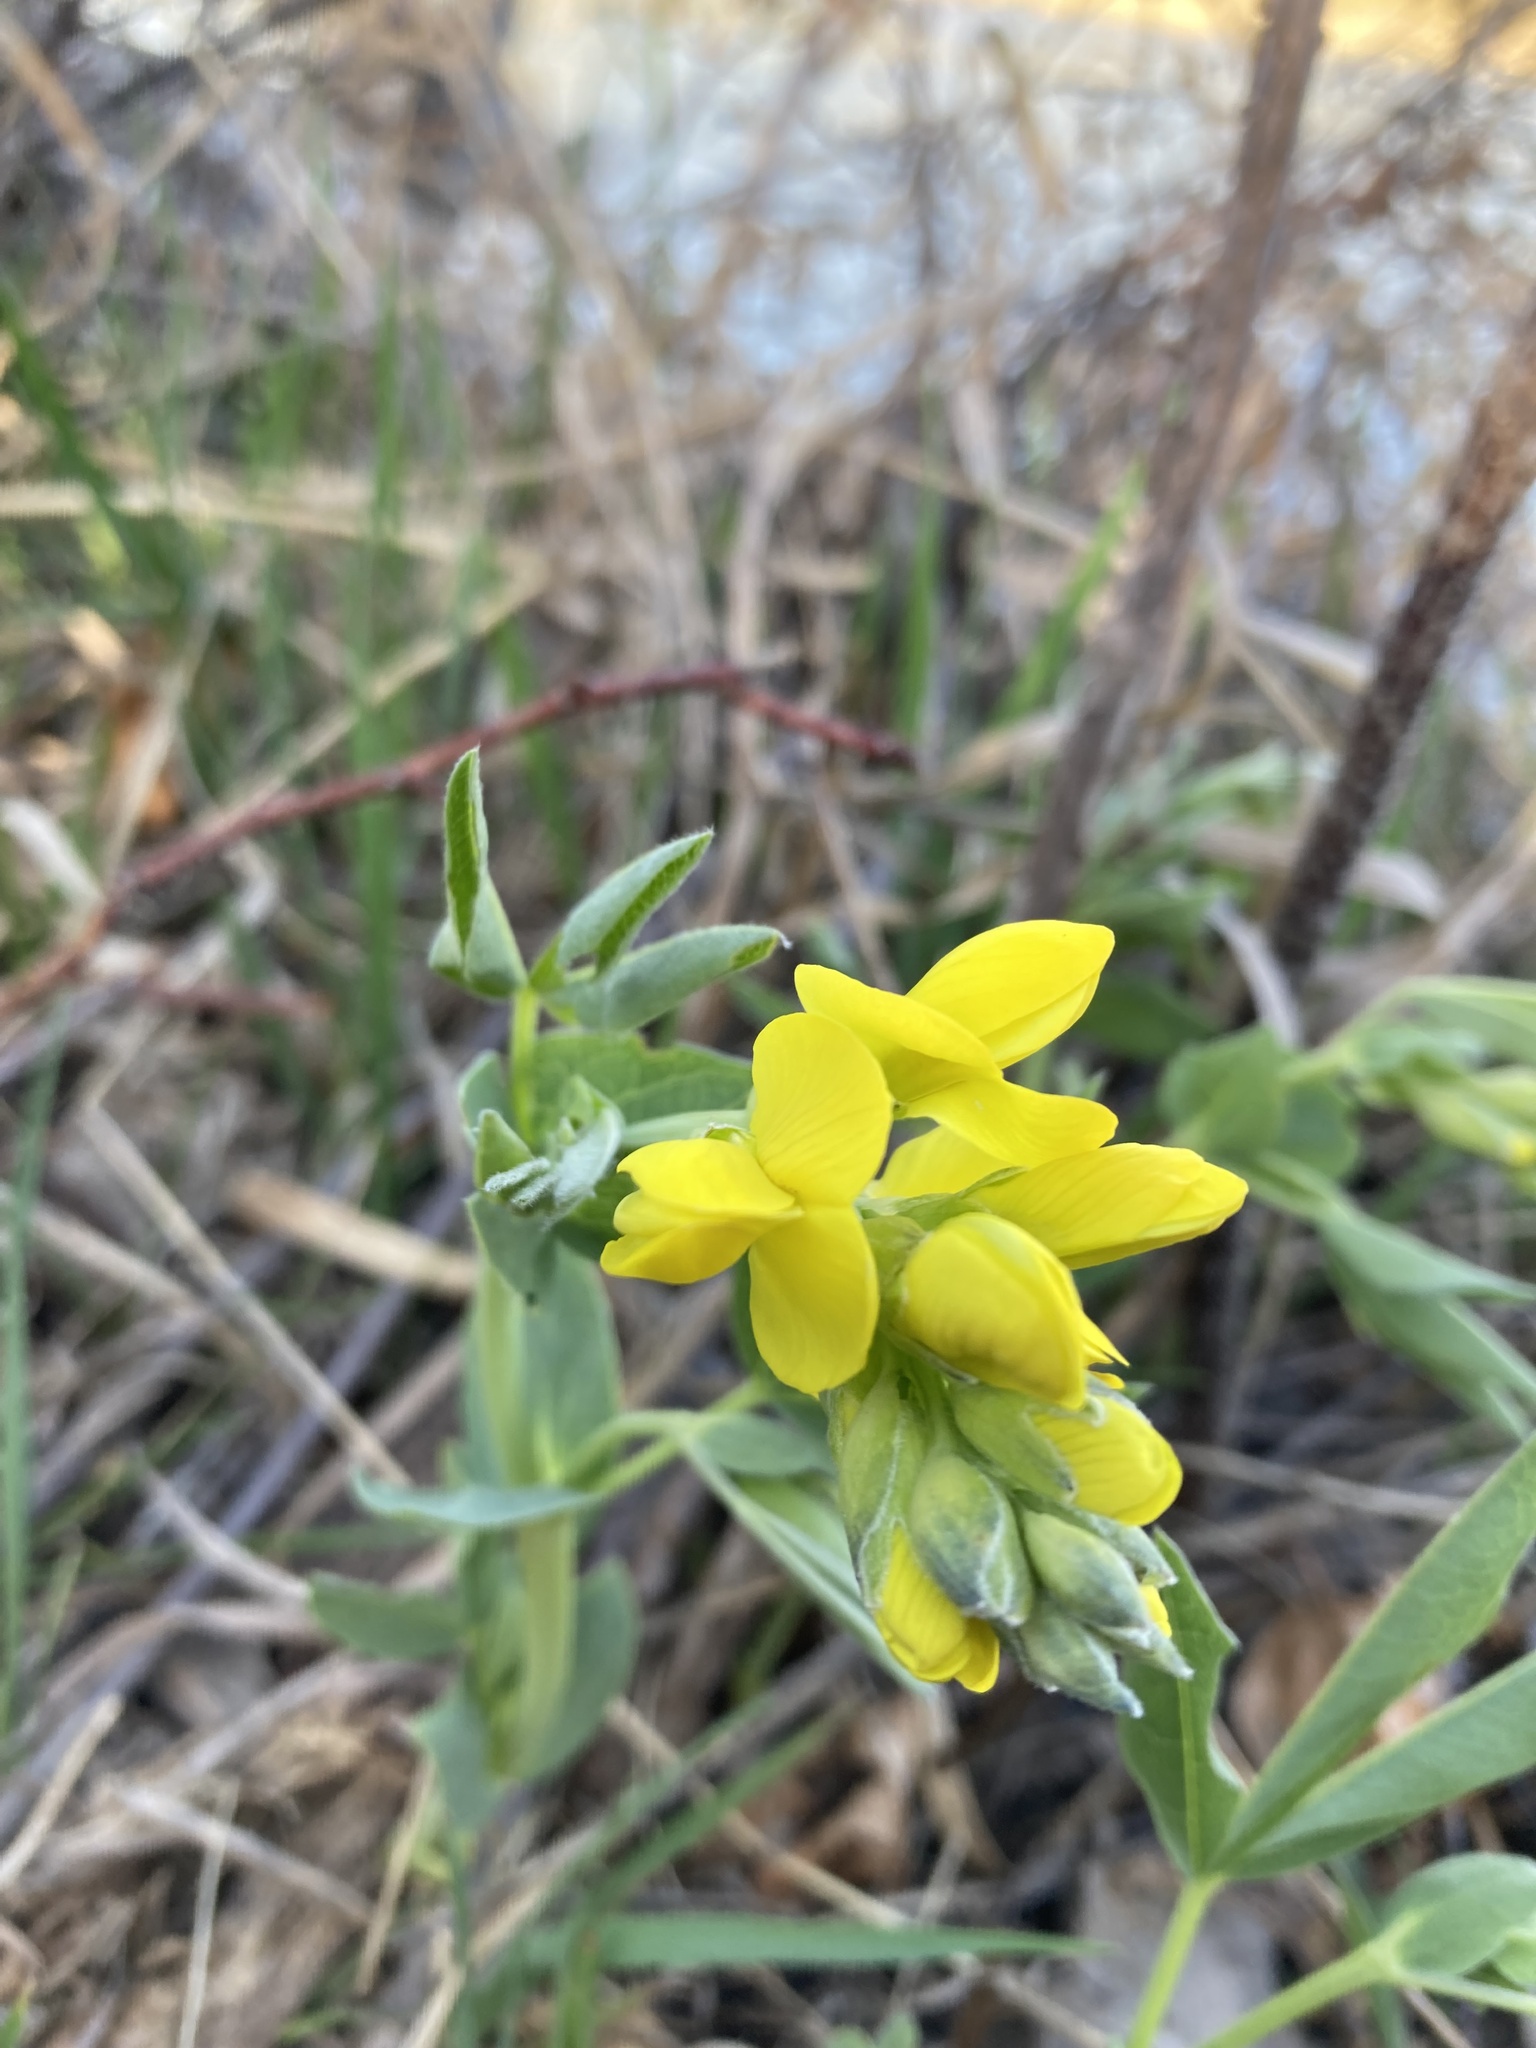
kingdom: Plantae
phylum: Tracheophyta
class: Magnoliopsida
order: Fabales
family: Fabaceae
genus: Thermopsis
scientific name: Thermopsis rhombifolia
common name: Circle-pod-pea
